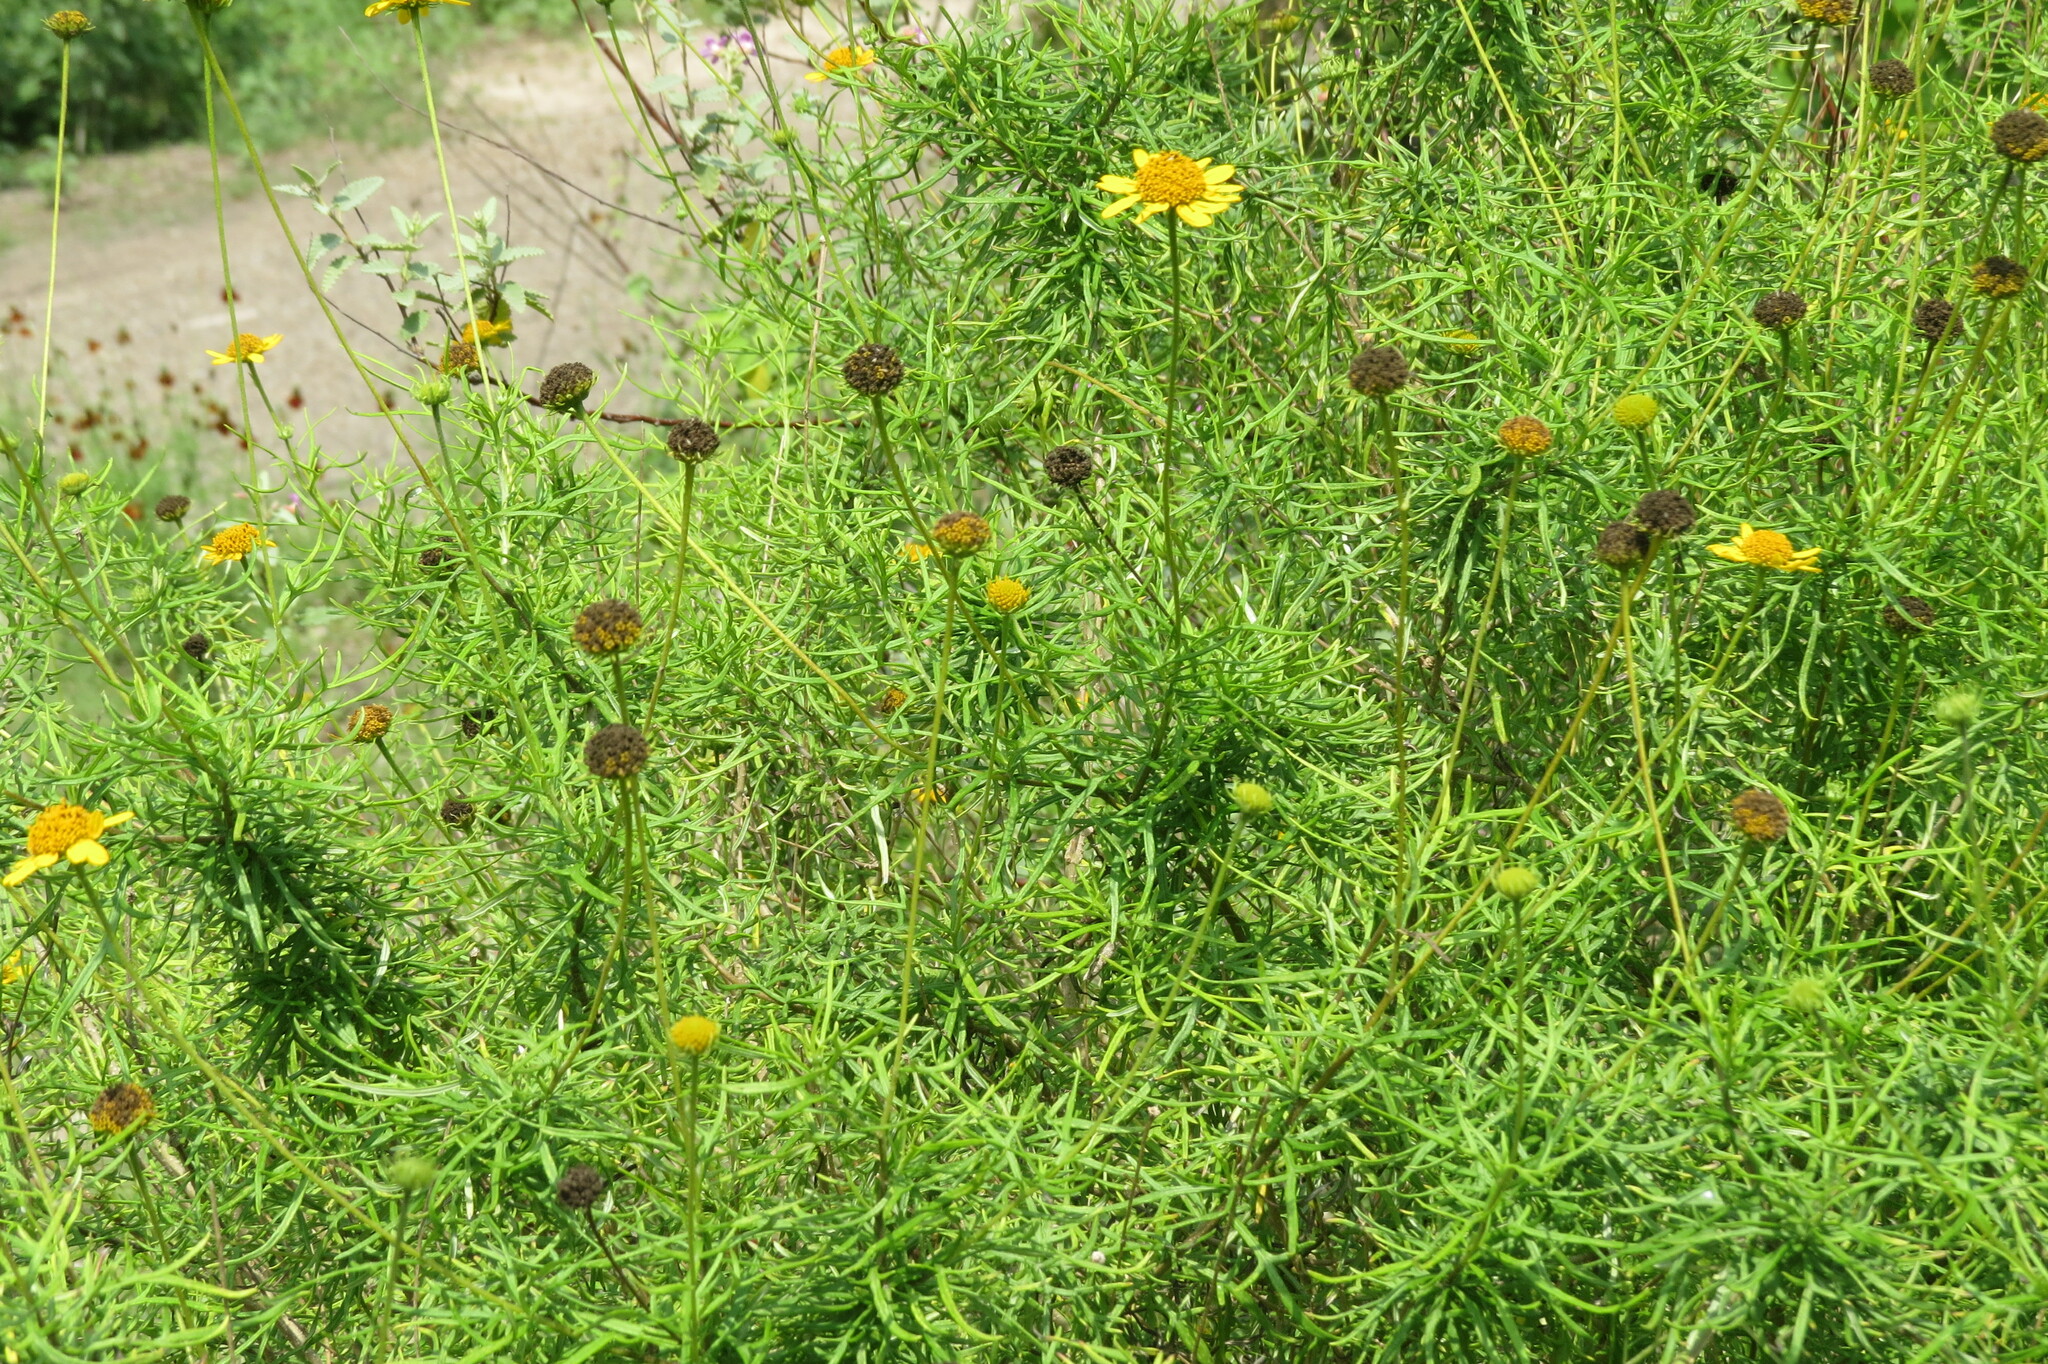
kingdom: Plantae
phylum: Tracheophyta
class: Magnoliopsida
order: Asterales
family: Asteraceae
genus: Sidneya
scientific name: Sidneya tenuifolia
